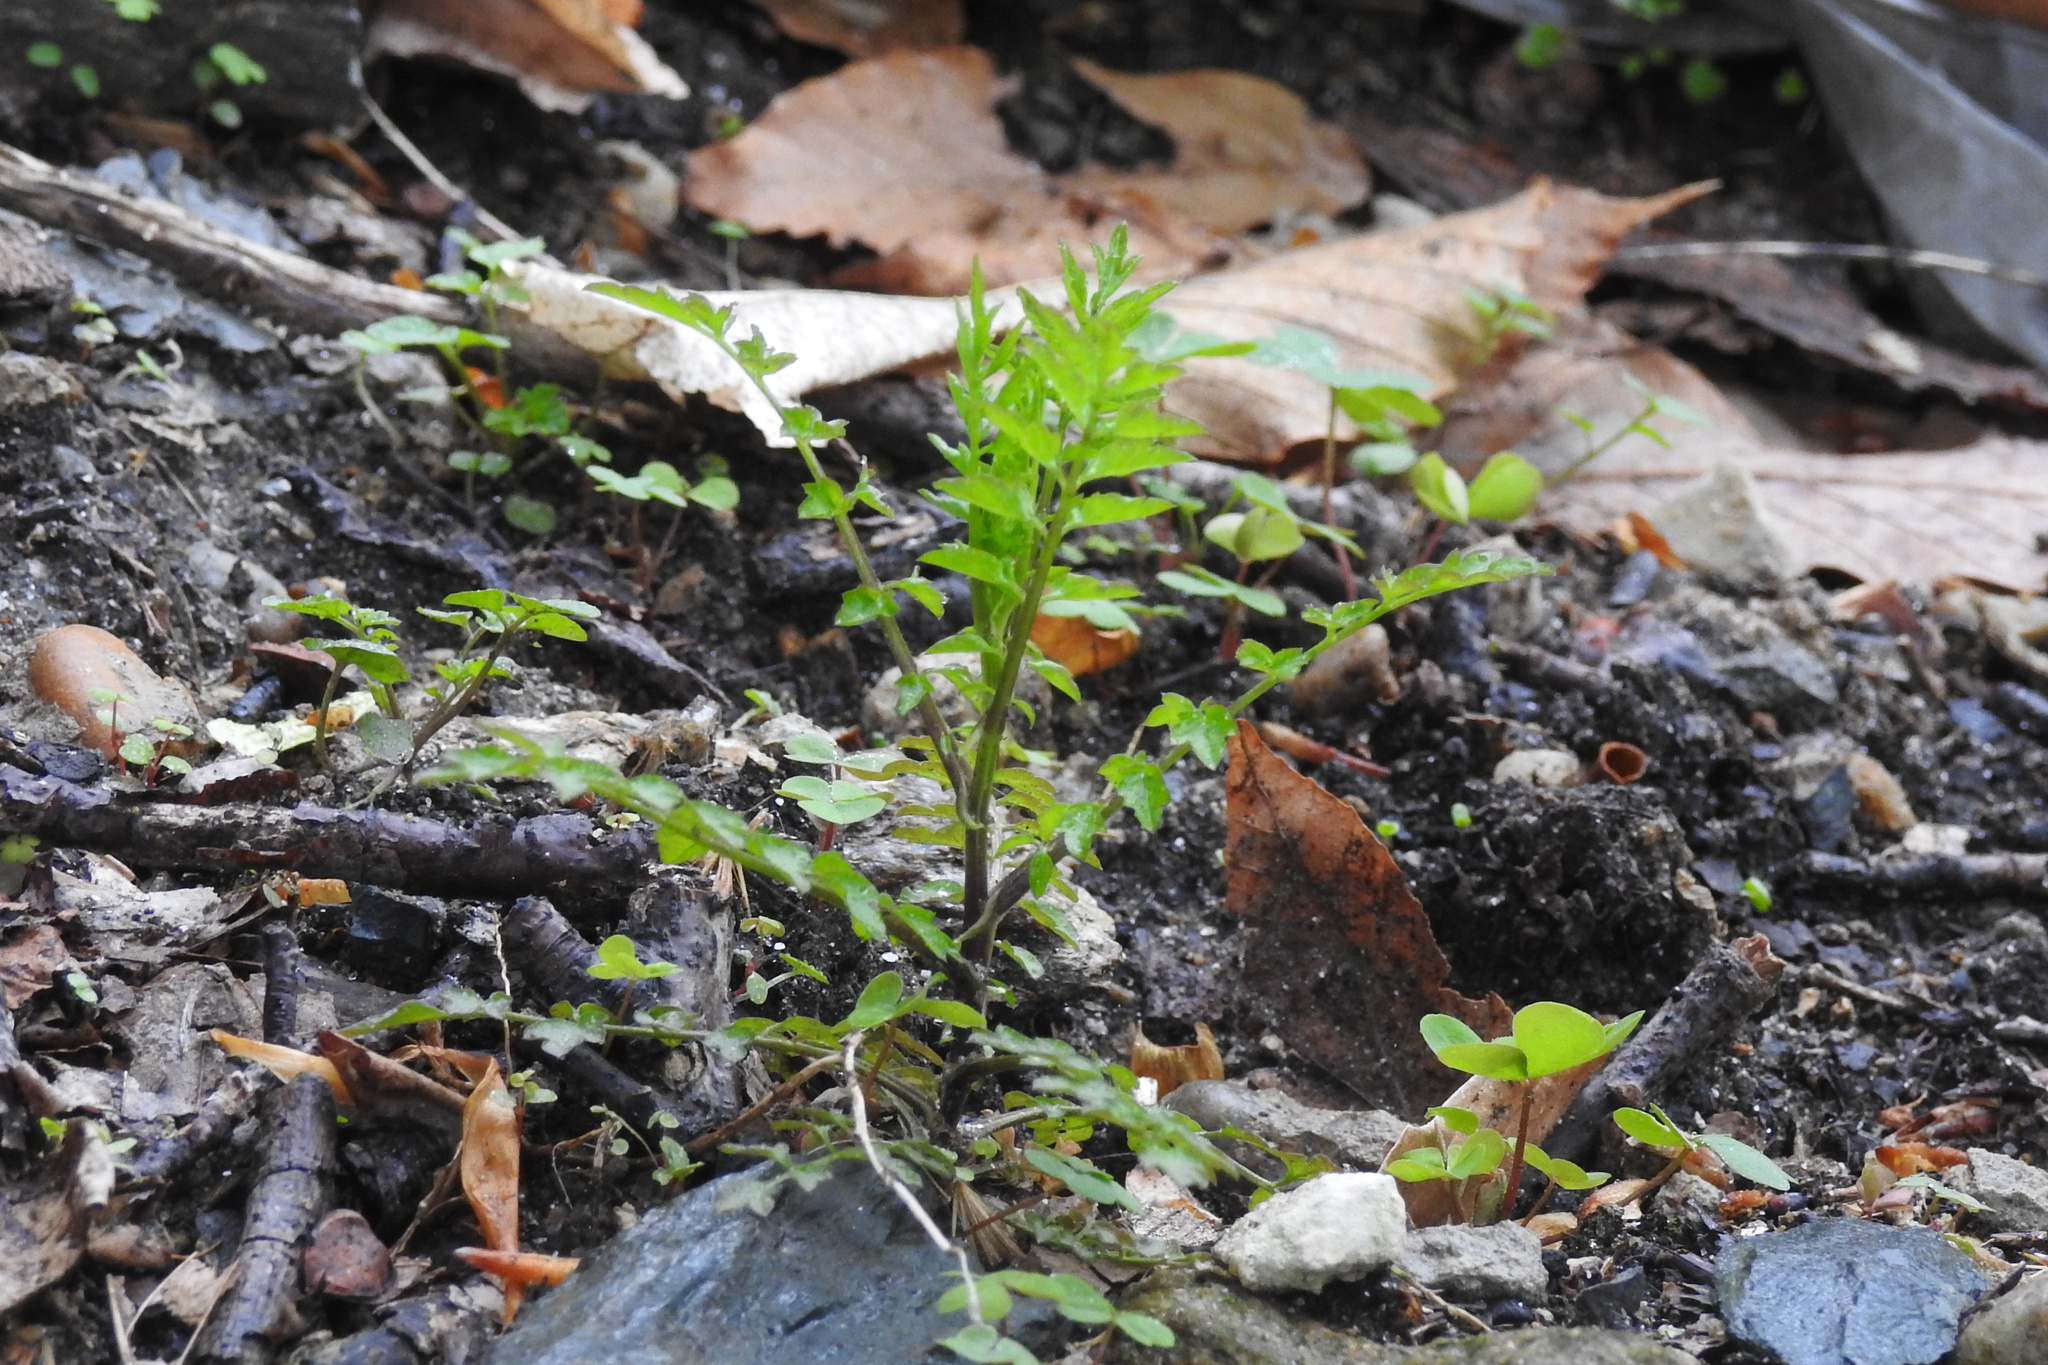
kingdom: Plantae
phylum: Tracheophyta
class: Magnoliopsida
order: Brassicales
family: Brassicaceae
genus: Cardamine
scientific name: Cardamine impatiens
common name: Narrow-leaved bitter-cress
